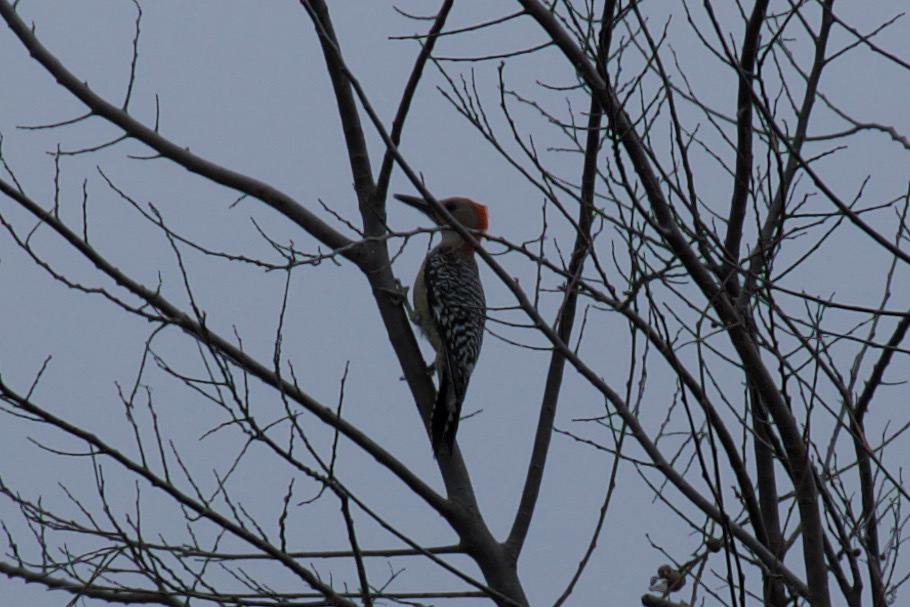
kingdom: Animalia
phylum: Chordata
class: Aves
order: Piciformes
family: Picidae
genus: Melanerpes
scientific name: Melanerpes carolinus
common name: Red-bellied woodpecker
